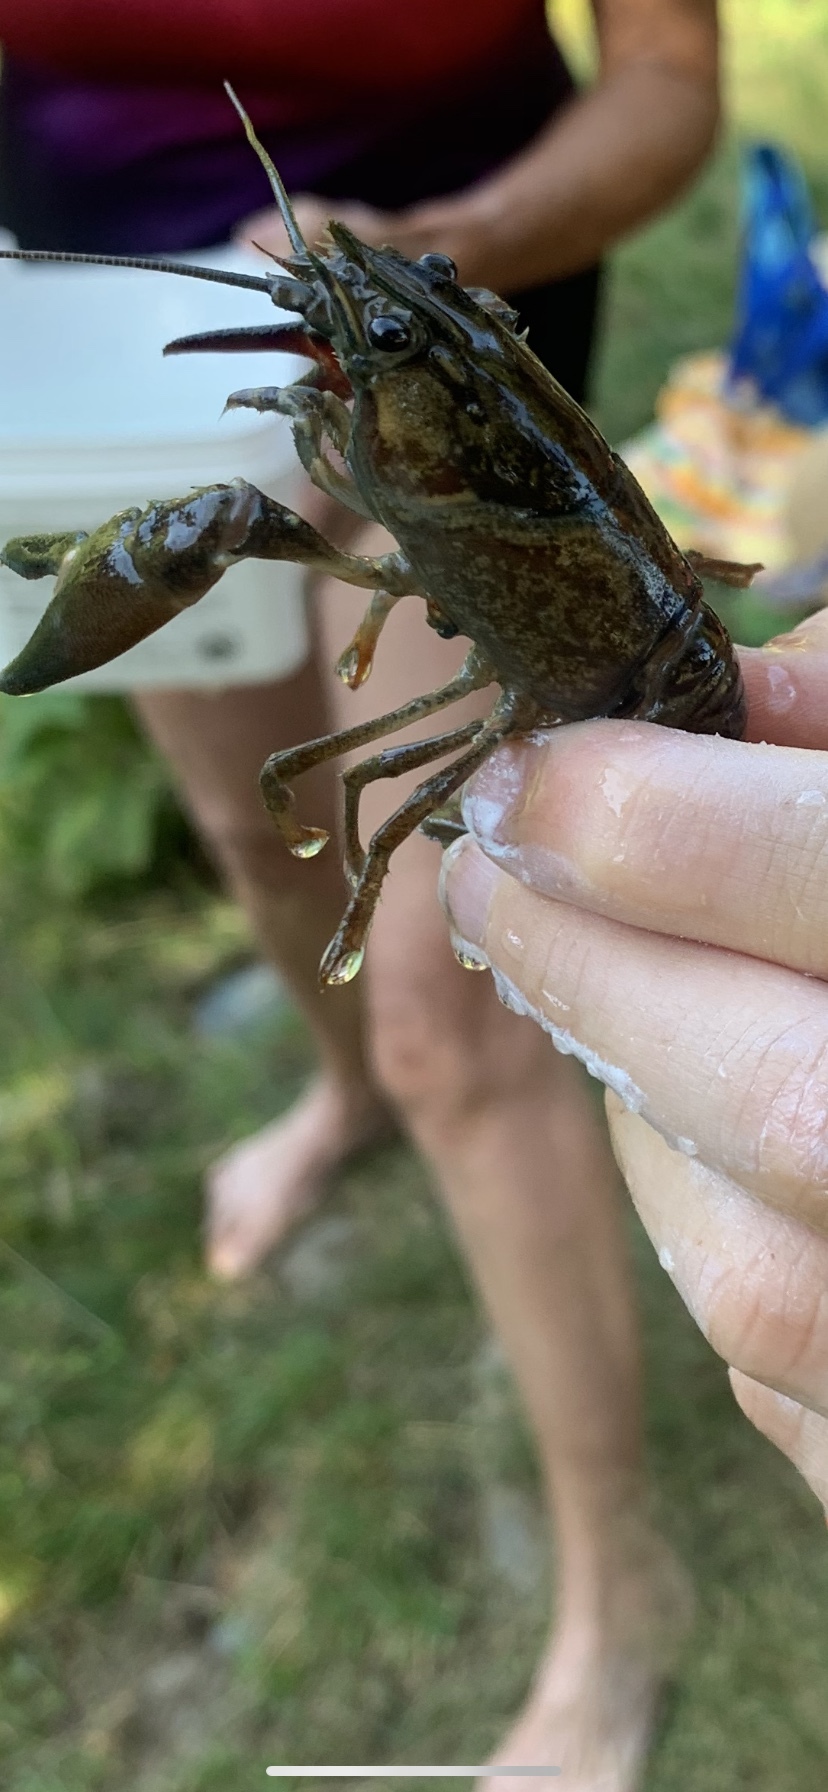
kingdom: Animalia
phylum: Arthropoda
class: Malacostraca
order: Decapoda
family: Astacidae
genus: Pacifastacus
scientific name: Pacifastacus leniusculus
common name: Signal crayfish
